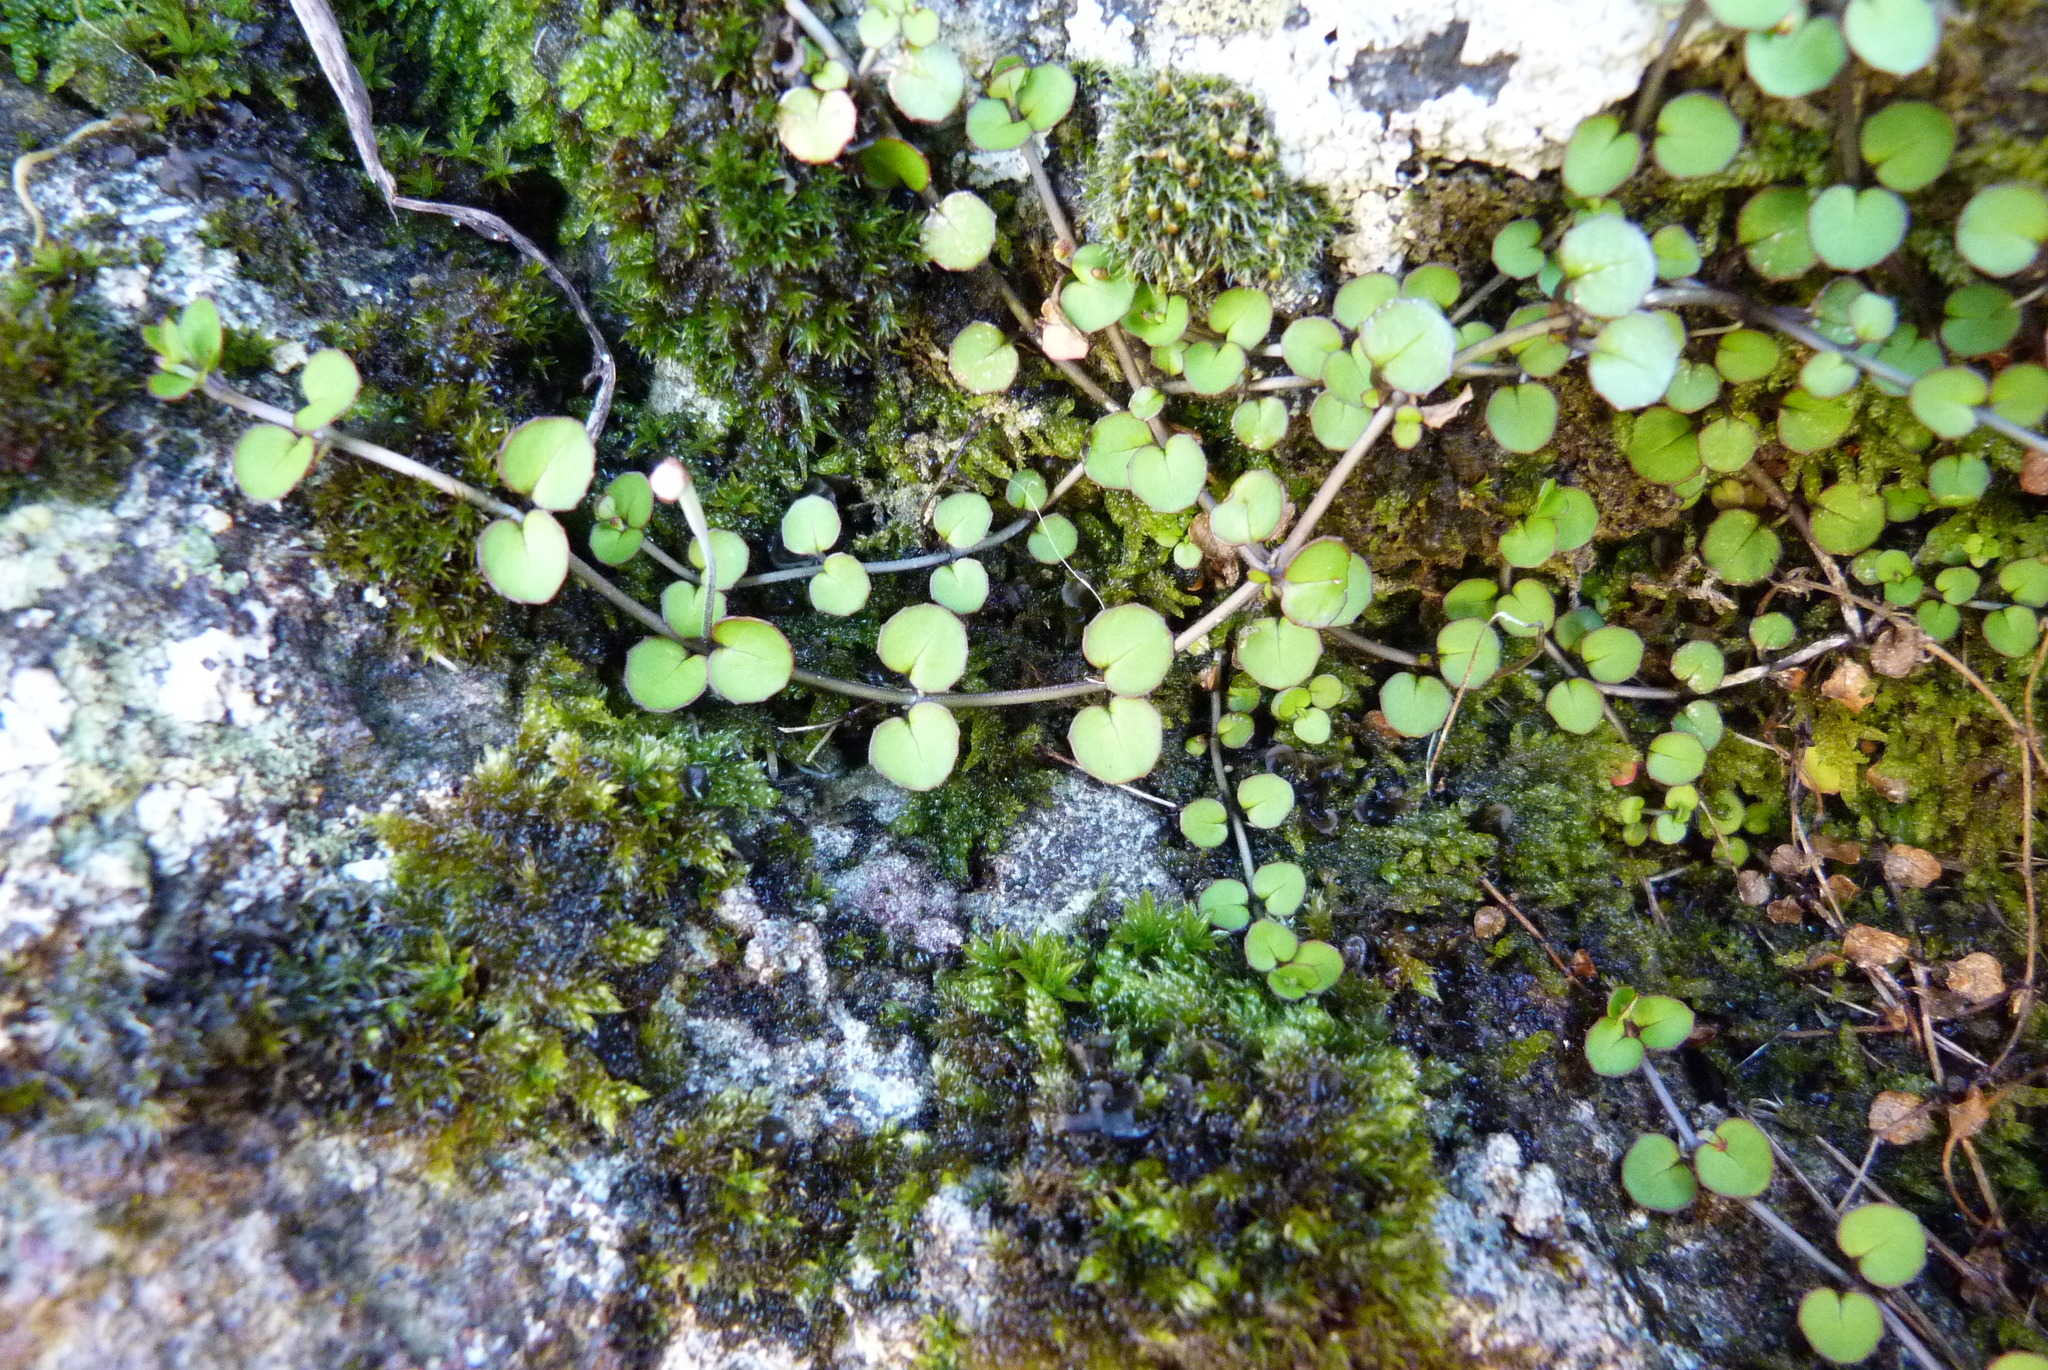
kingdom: Plantae
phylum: Tracheophyta
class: Magnoliopsida
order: Myrtales
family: Onagraceae
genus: Epilobium
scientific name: Epilobium nummularifolium
